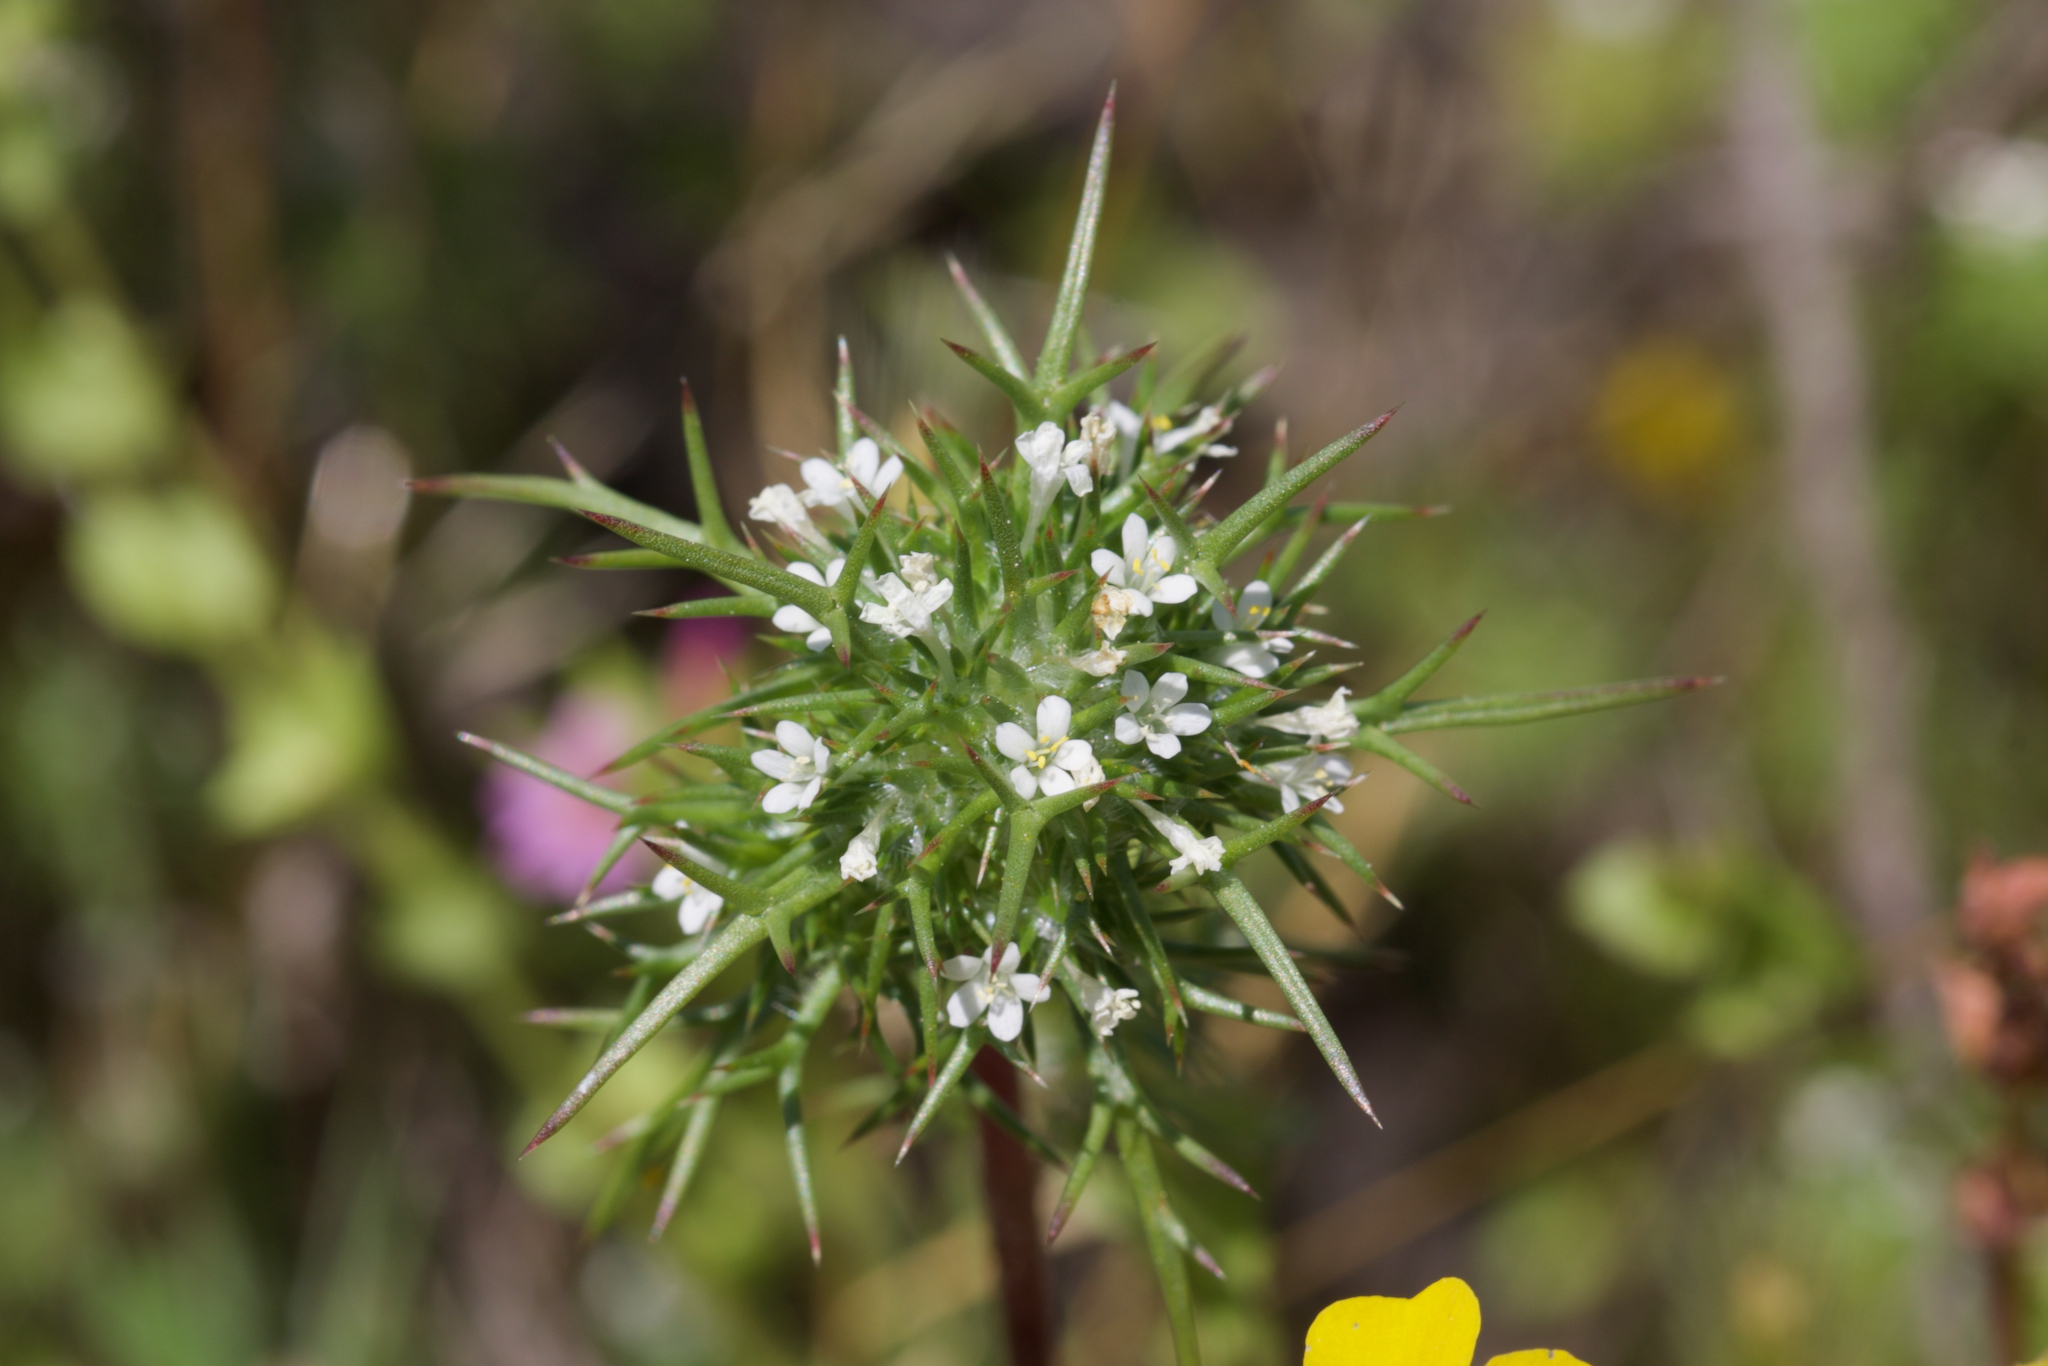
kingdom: Plantae
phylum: Tracheophyta
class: Magnoliopsida
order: Ericales
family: Polemoniaceae
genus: Navarretia
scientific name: Navarretia paradoxinota
